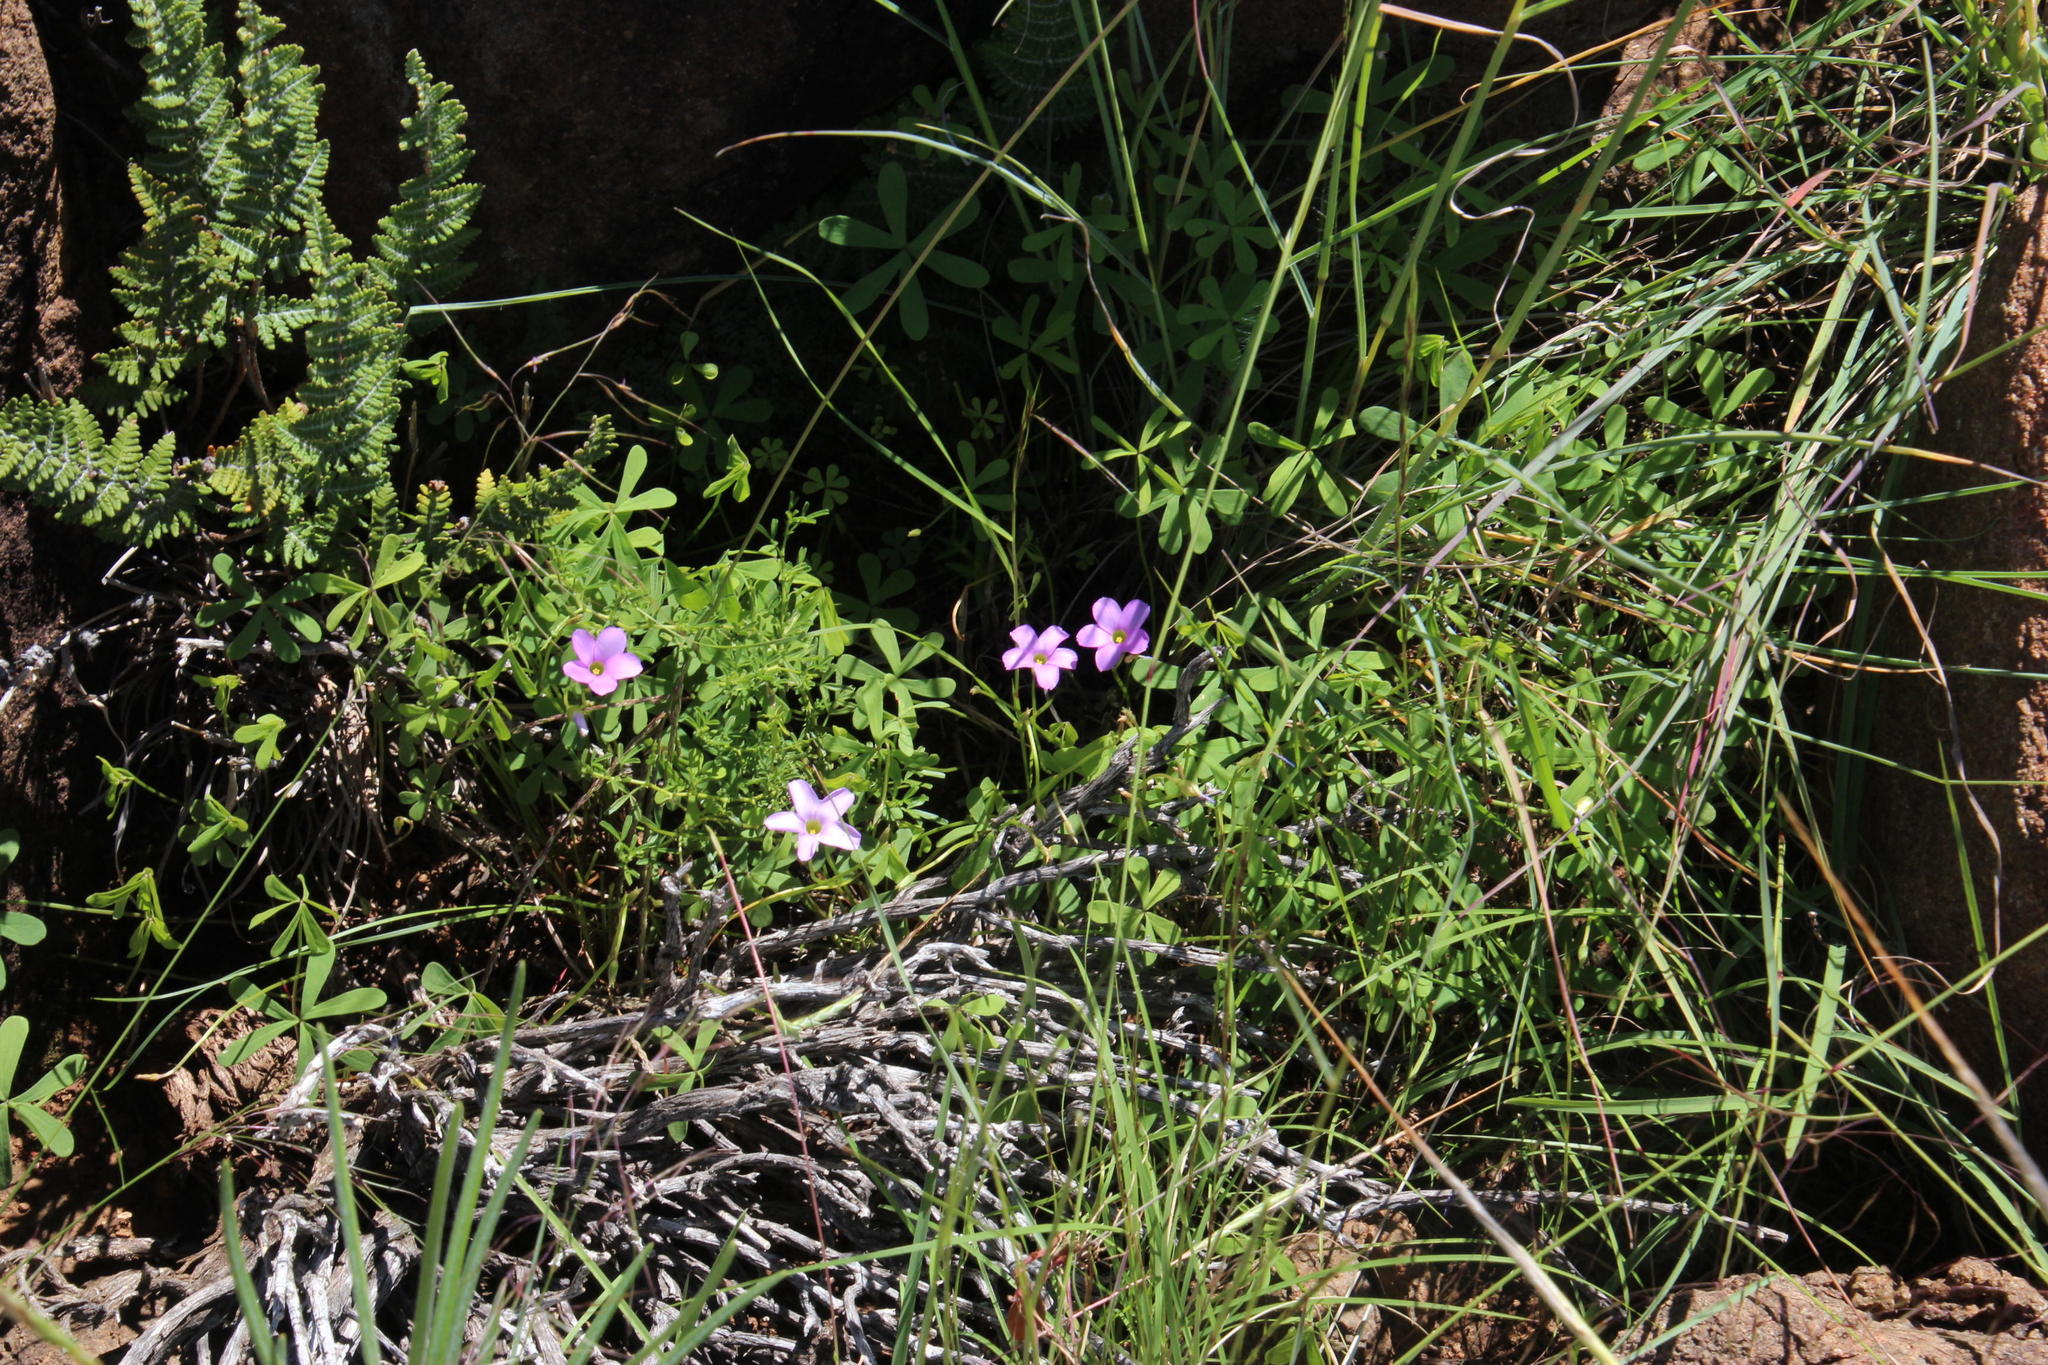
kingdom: Plantae
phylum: Tracheophyta
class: Magnoliopsida
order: Oxalidales
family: Oxalidaceae
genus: Oxalis
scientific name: Oxalis smithiana
